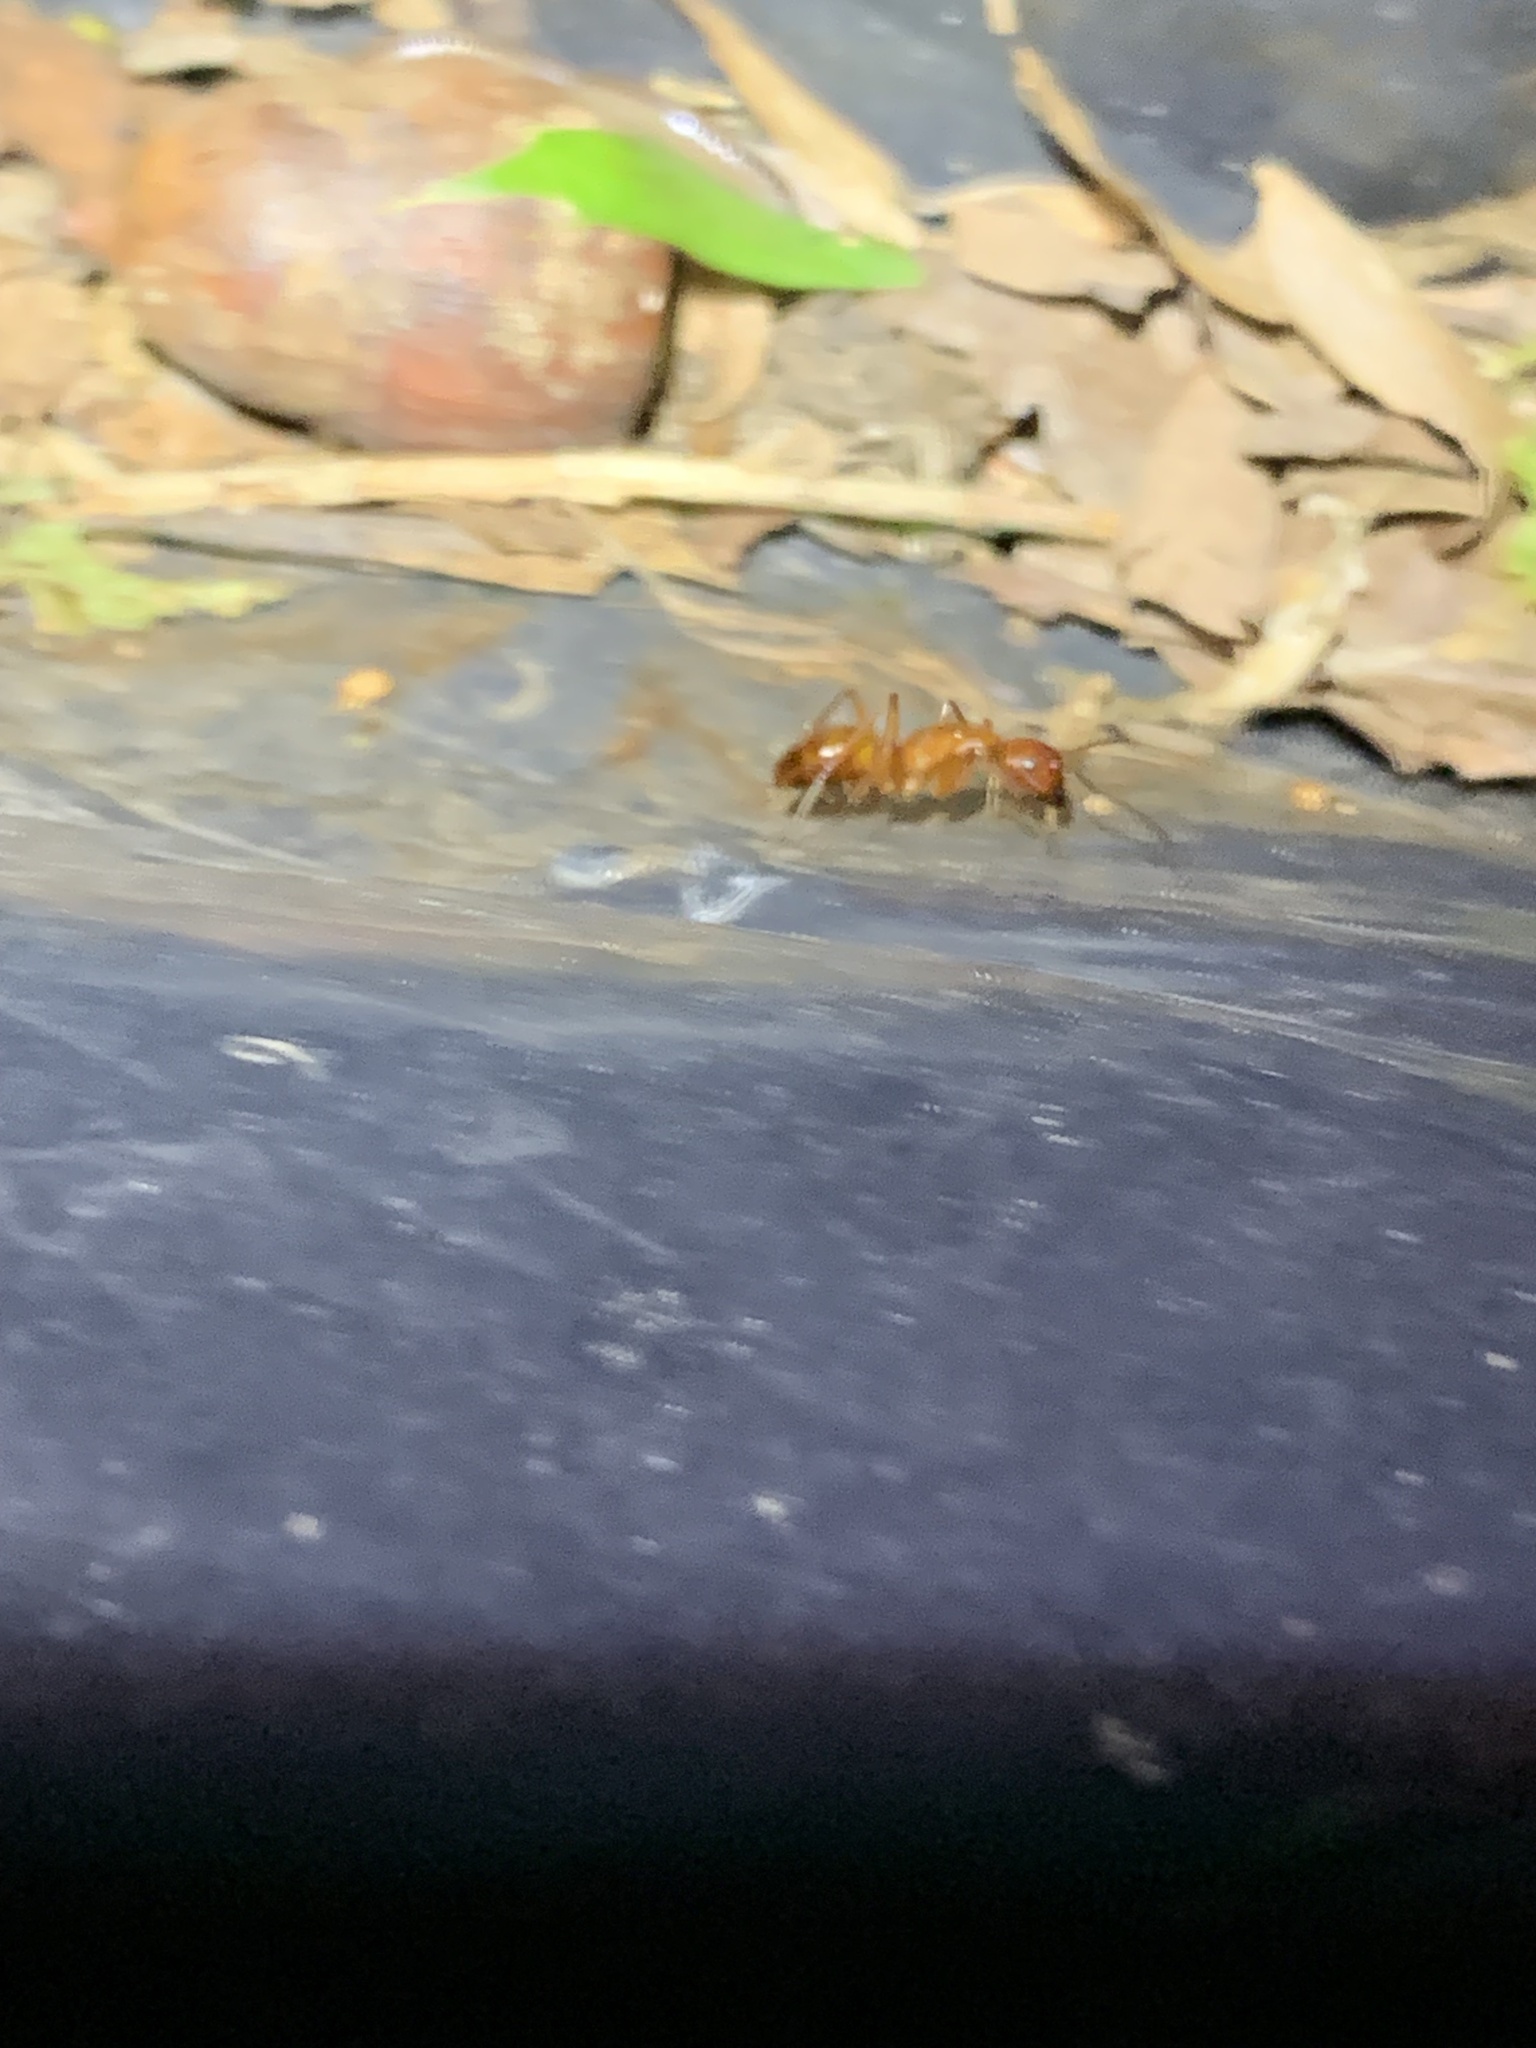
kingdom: Animalia
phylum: Arthropoda
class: Insecta
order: Hymenoptera
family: Formicidae
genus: Camponotus
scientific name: Camponotus castaneus
